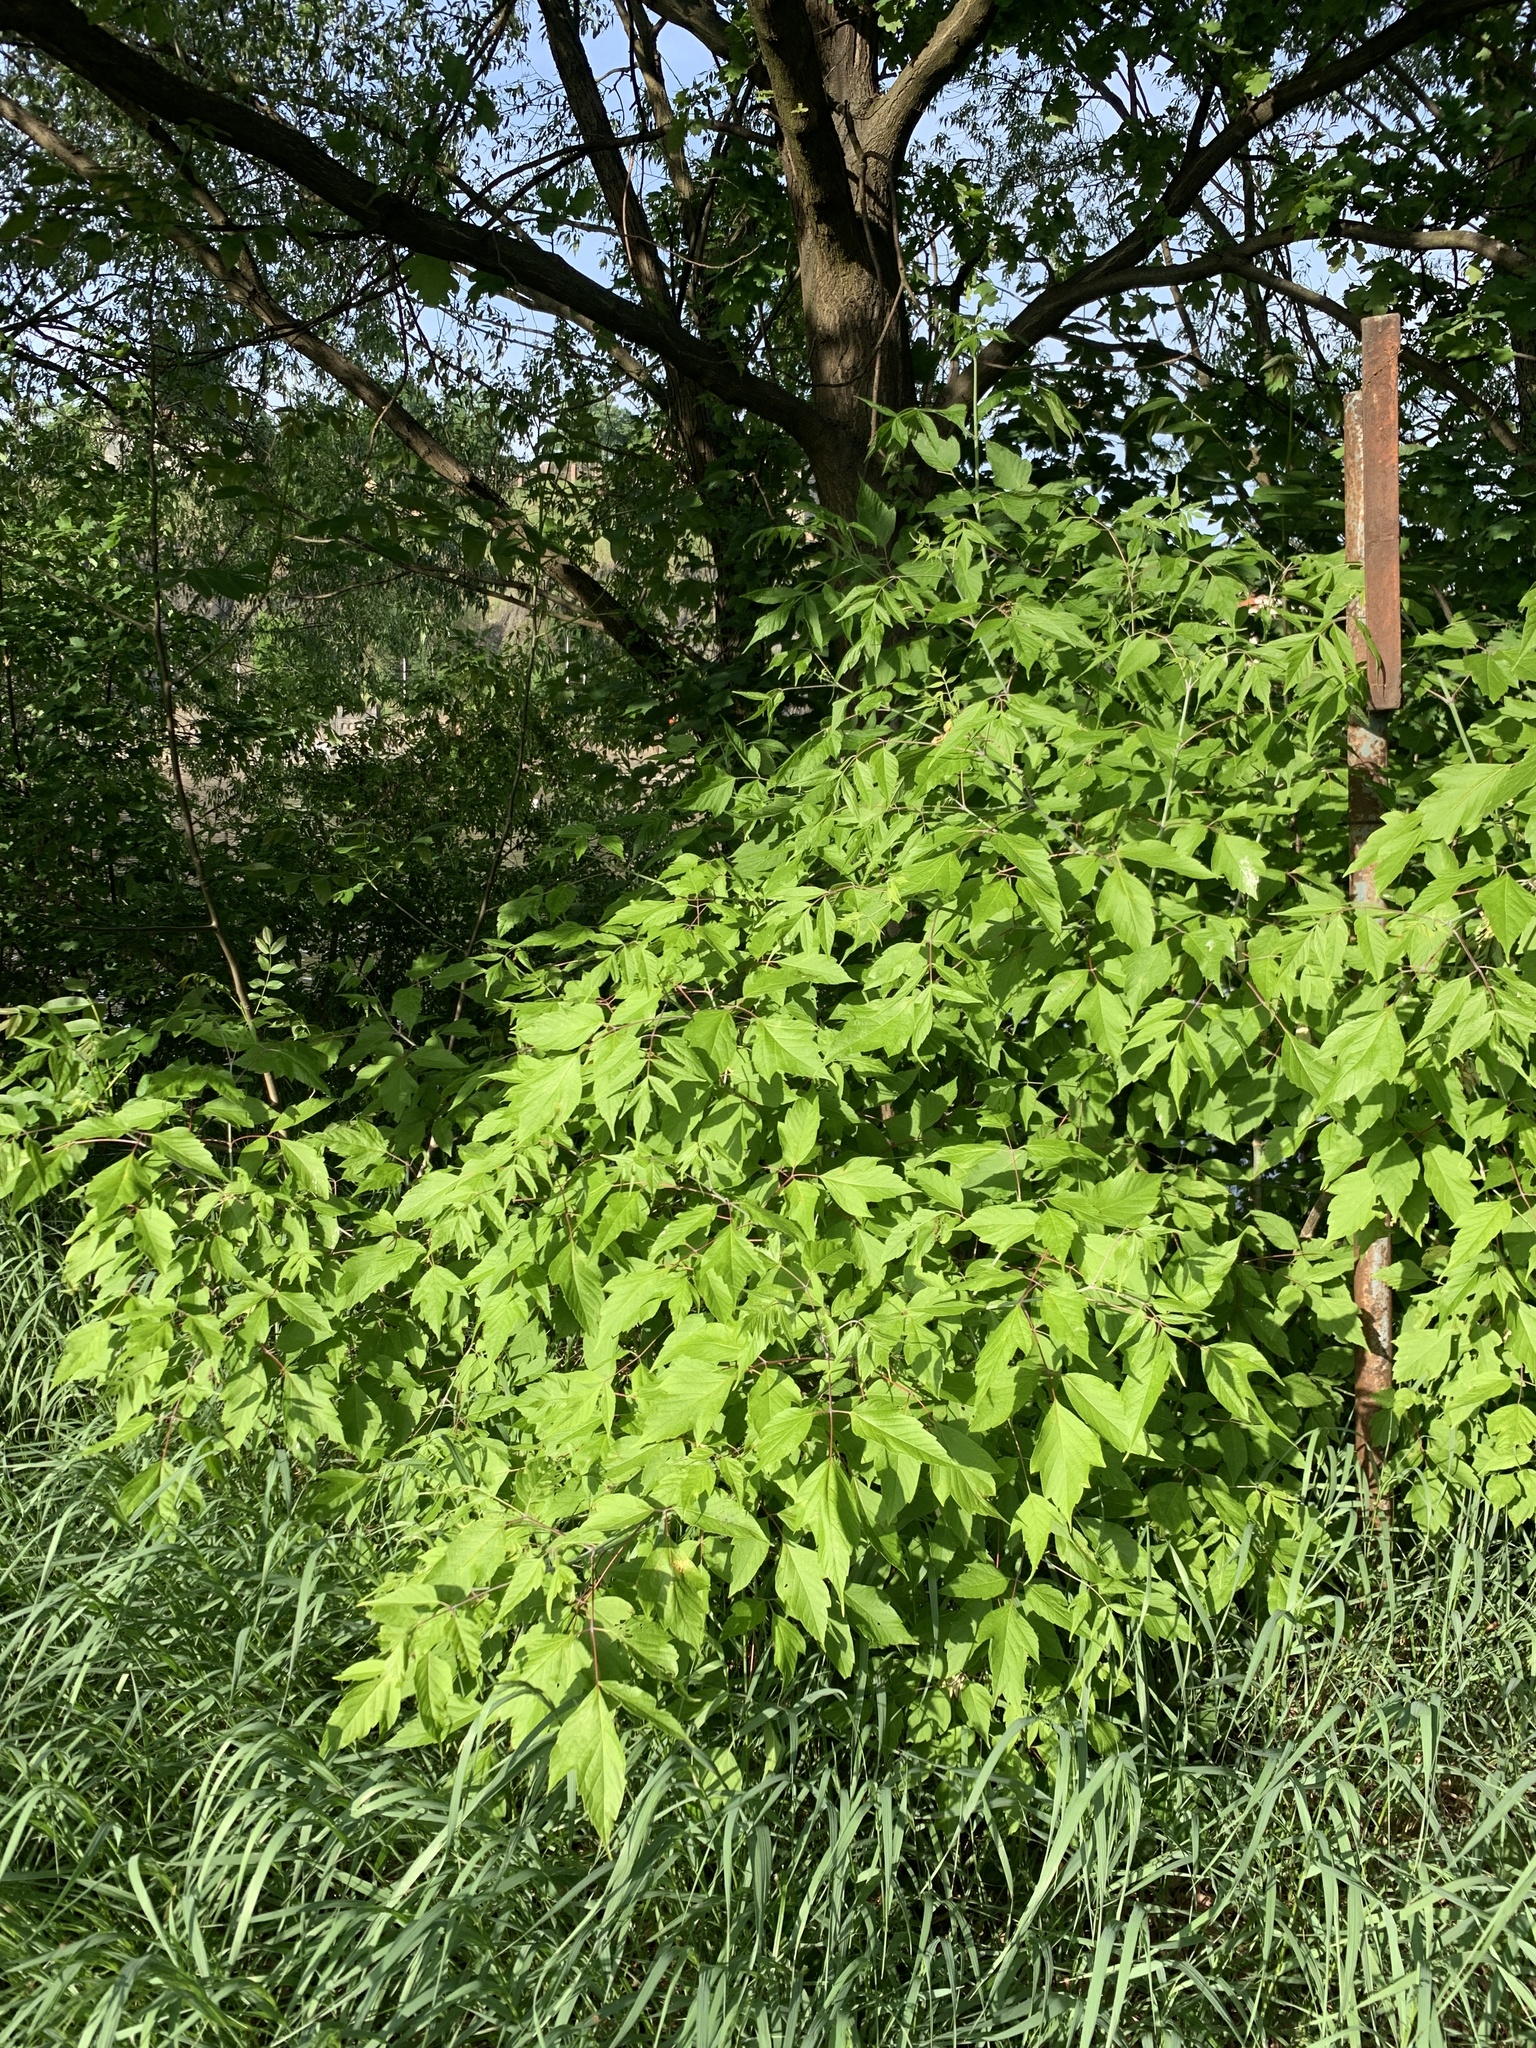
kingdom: Plantae
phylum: Tracheophyta
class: Magnoliopsida
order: Sapindales
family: Sapindaceae
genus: Acer
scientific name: Acer negundo
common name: Ashleaf maple
